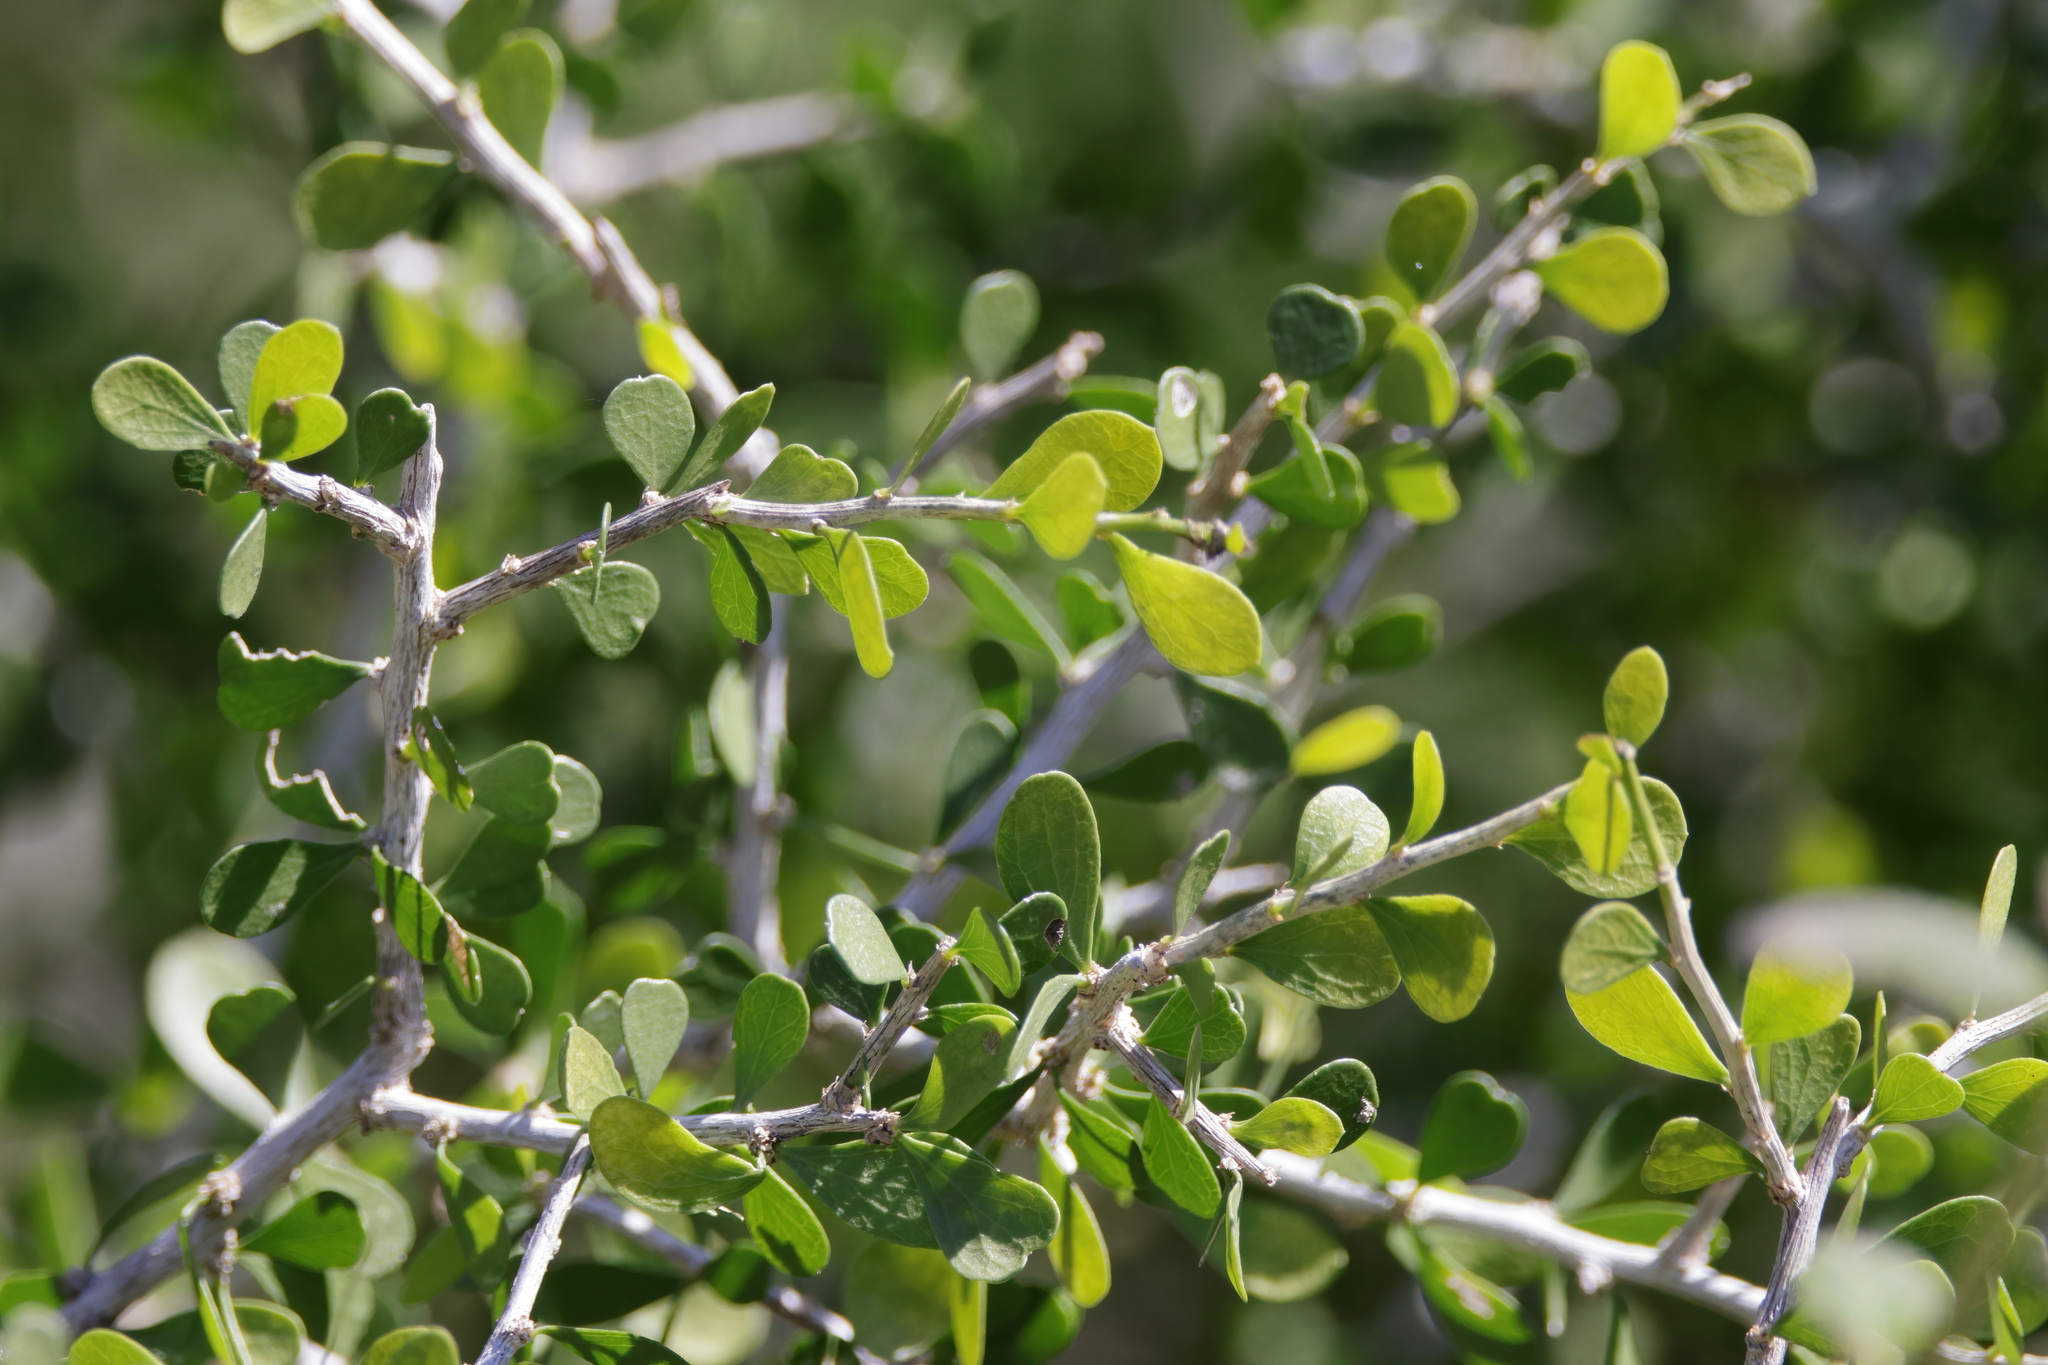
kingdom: Plantae
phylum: Tracheophyta
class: Magnoliopsida
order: Celastrales
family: Celastraceae
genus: Schaefferia
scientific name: Schaefferia cuneifolia
